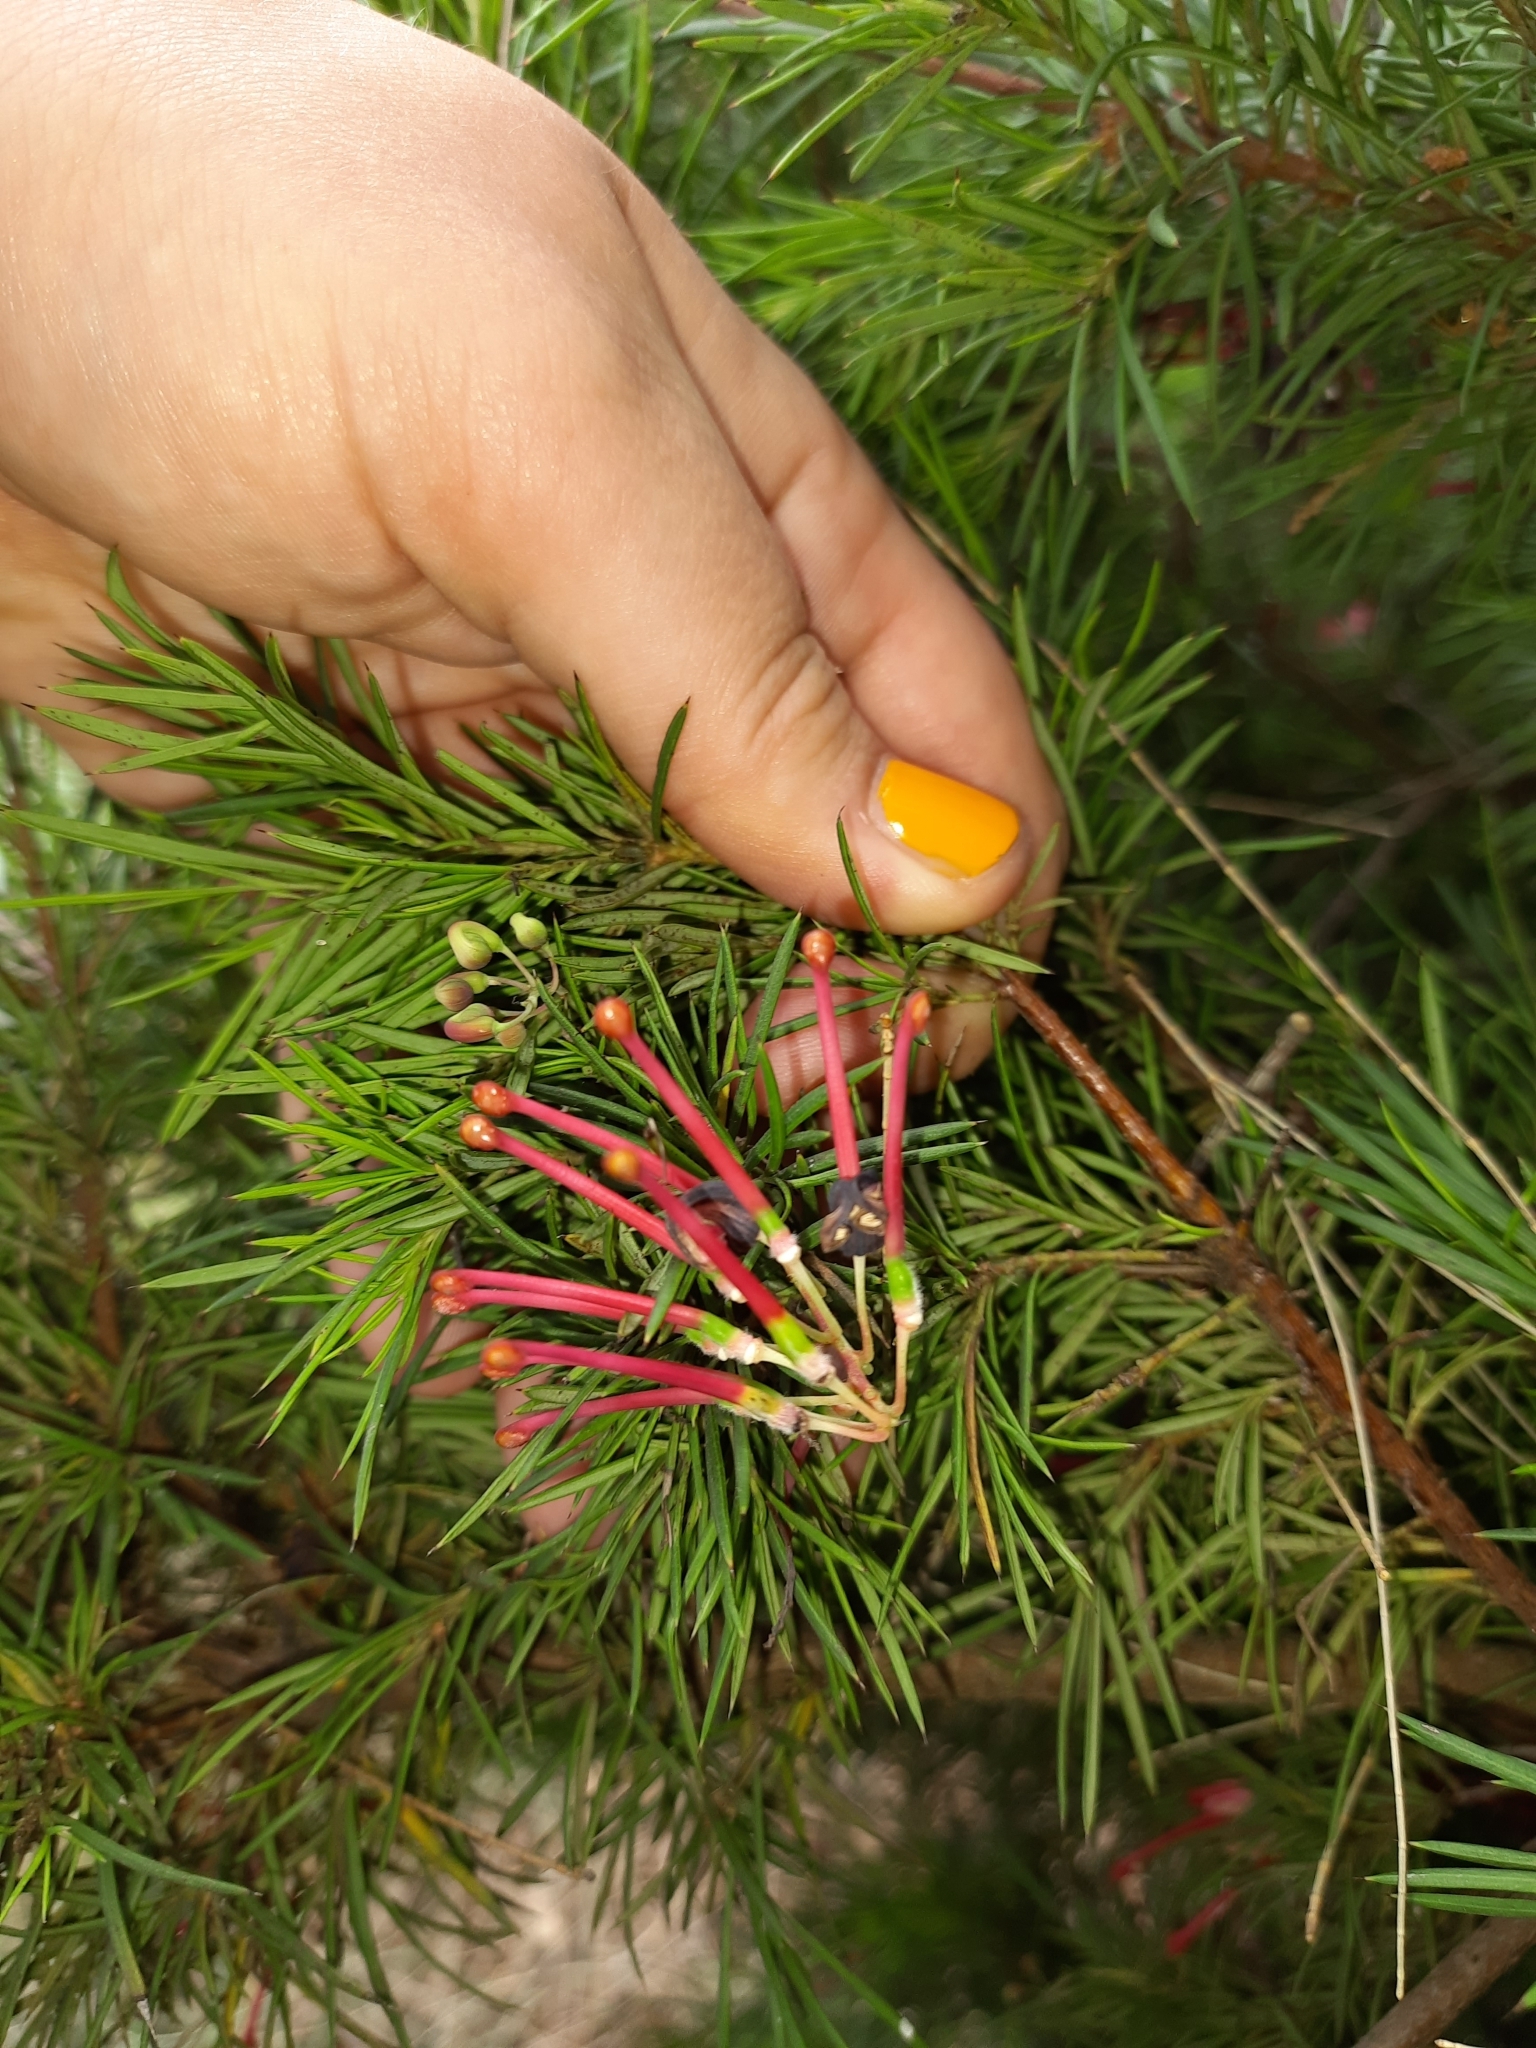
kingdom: Plantae
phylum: Tracheophyta
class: Magnoliopsida
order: Proteales
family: Proteaceae
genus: Grevillea
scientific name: Grevillea rosmarinifolia
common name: Rosemary grevillea
